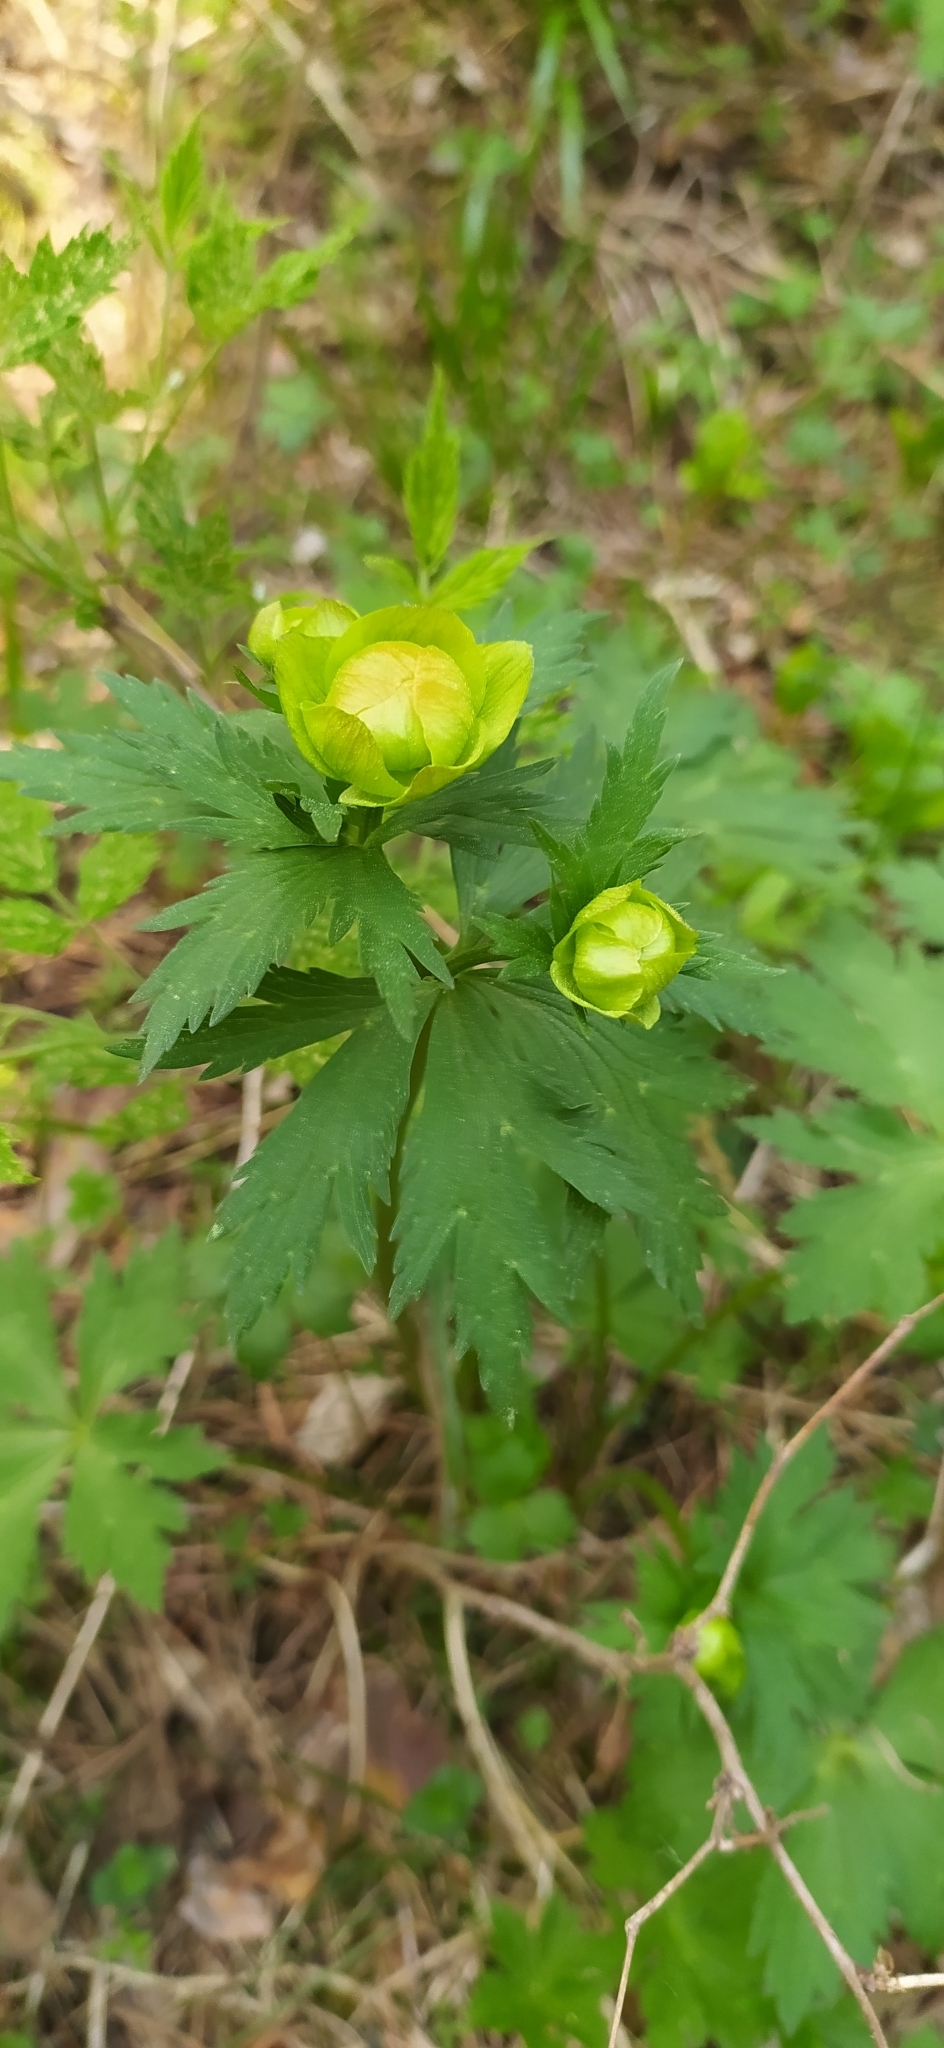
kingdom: Plantae
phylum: Tracheophyta
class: Magnoliopsida
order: Ranunculales
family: Ranunculaceae
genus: Trollius
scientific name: Trollius europaeus
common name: European globeflower
